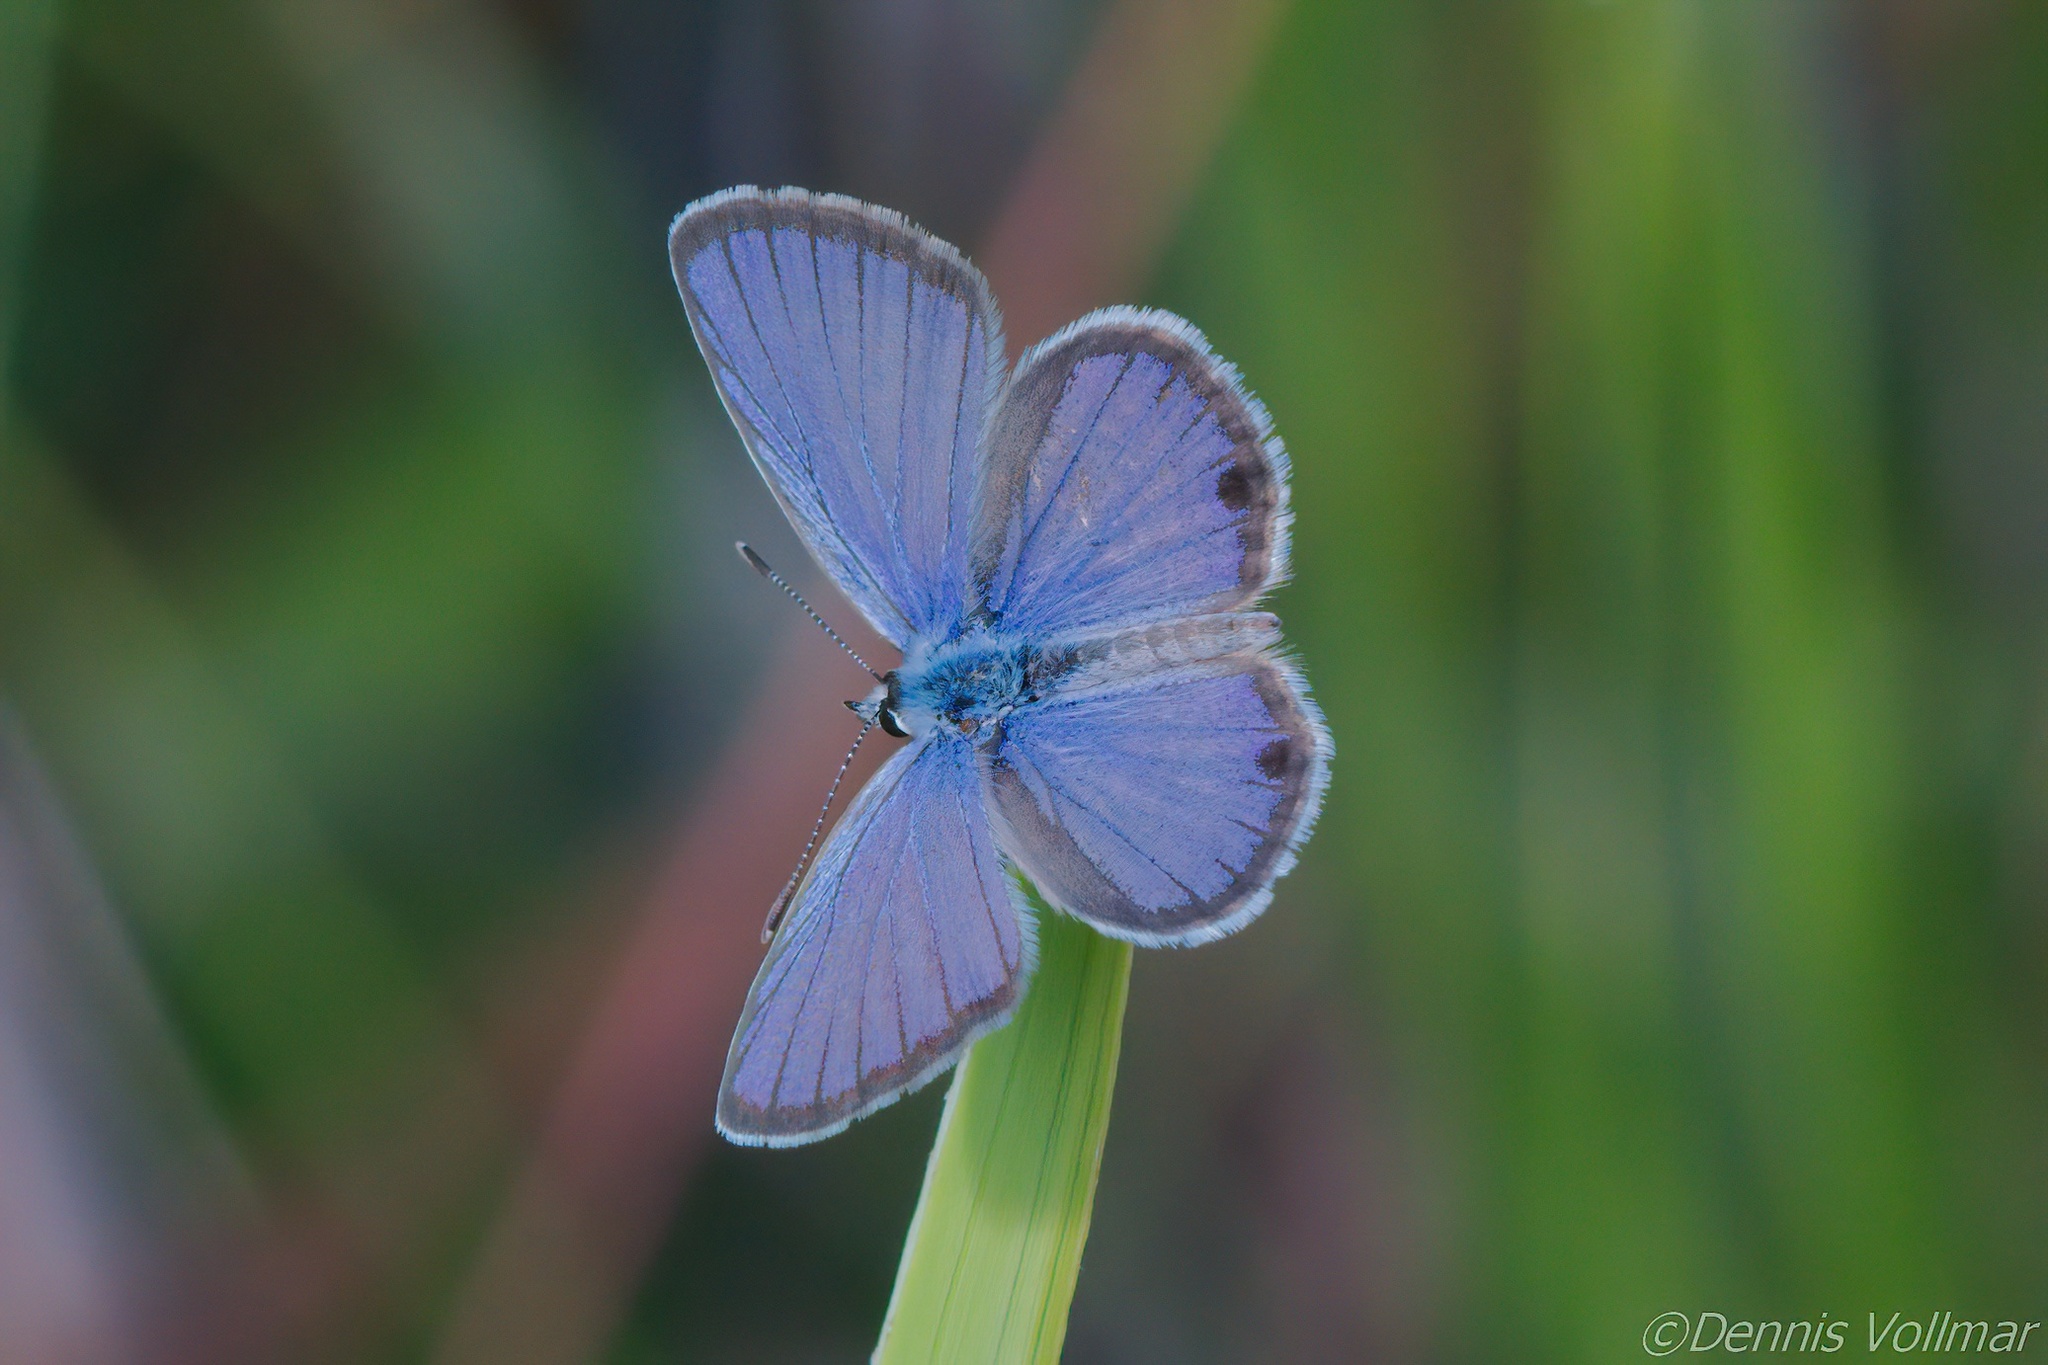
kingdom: Animalia
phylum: Arthropoda
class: Insecta
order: Lepidoptera
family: Lycaenidae
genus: Hemiargus
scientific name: Hemiargus ceraunus
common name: Ceraunus blue
